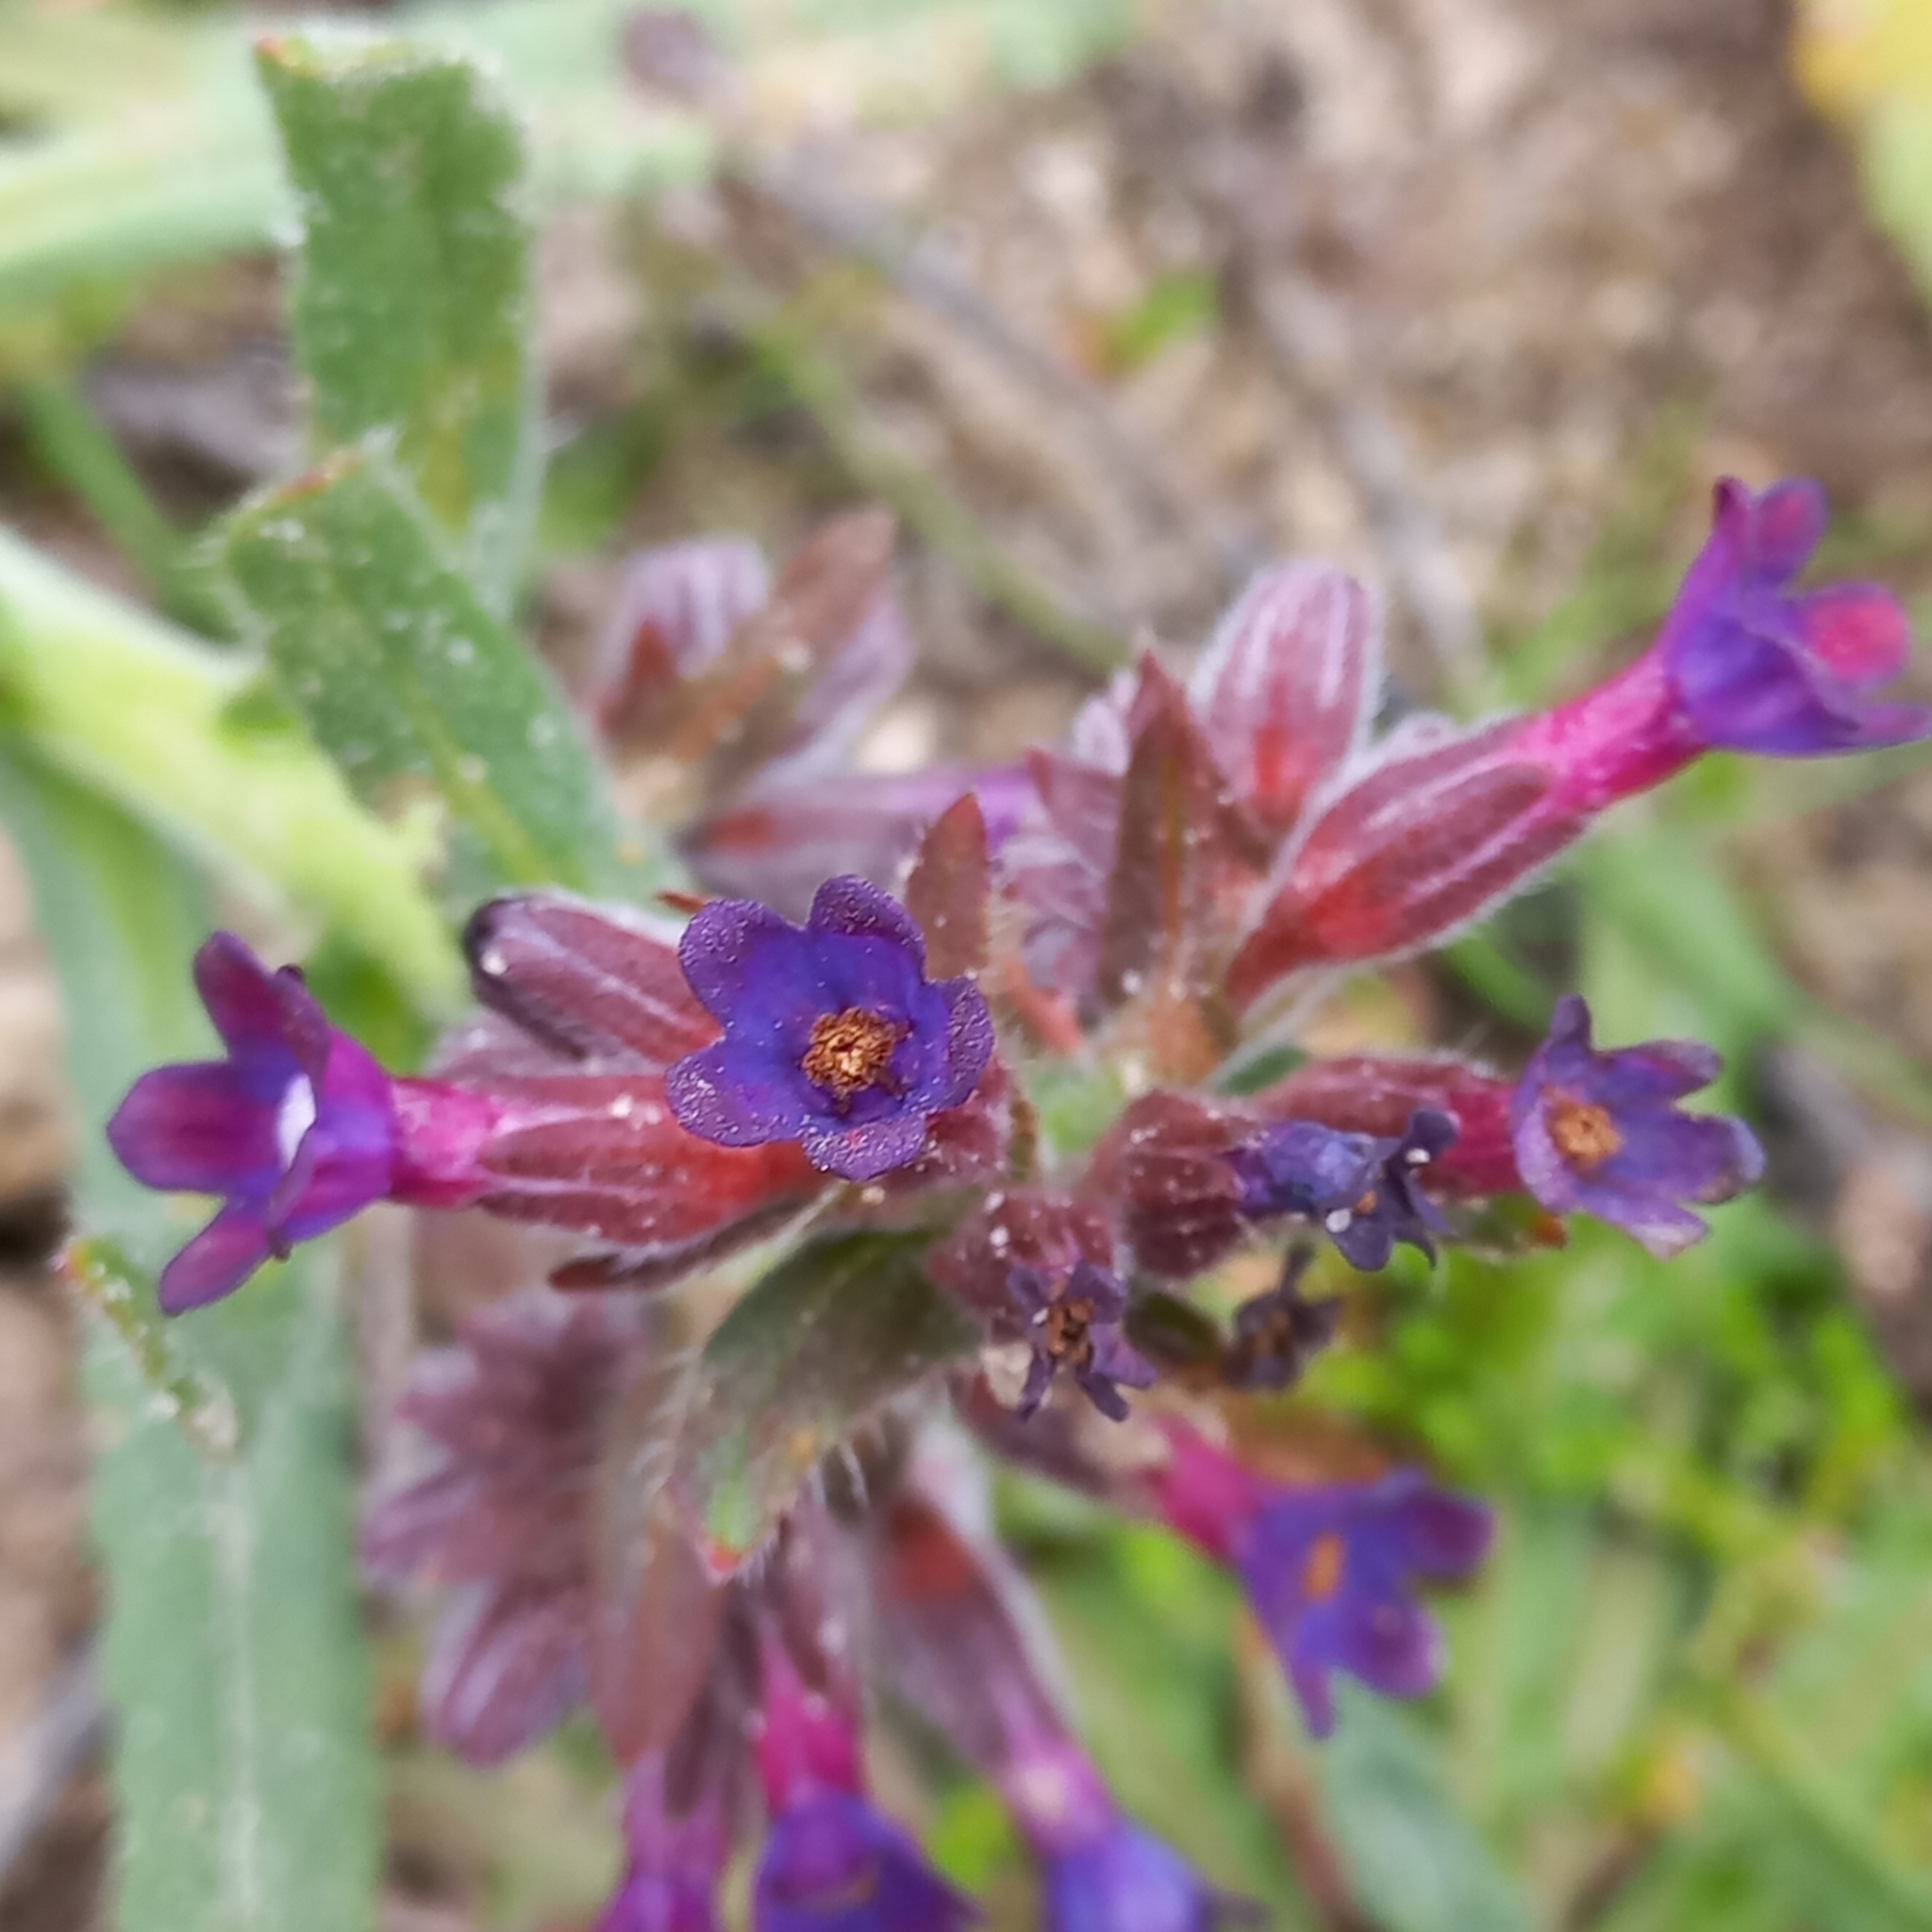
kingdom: Plantae
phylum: Tracheophyta
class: Magnoliopsida
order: Boraginales
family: Boraginaceae
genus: Anchusa
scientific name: Anchusa undulata
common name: Undulate alkanet
